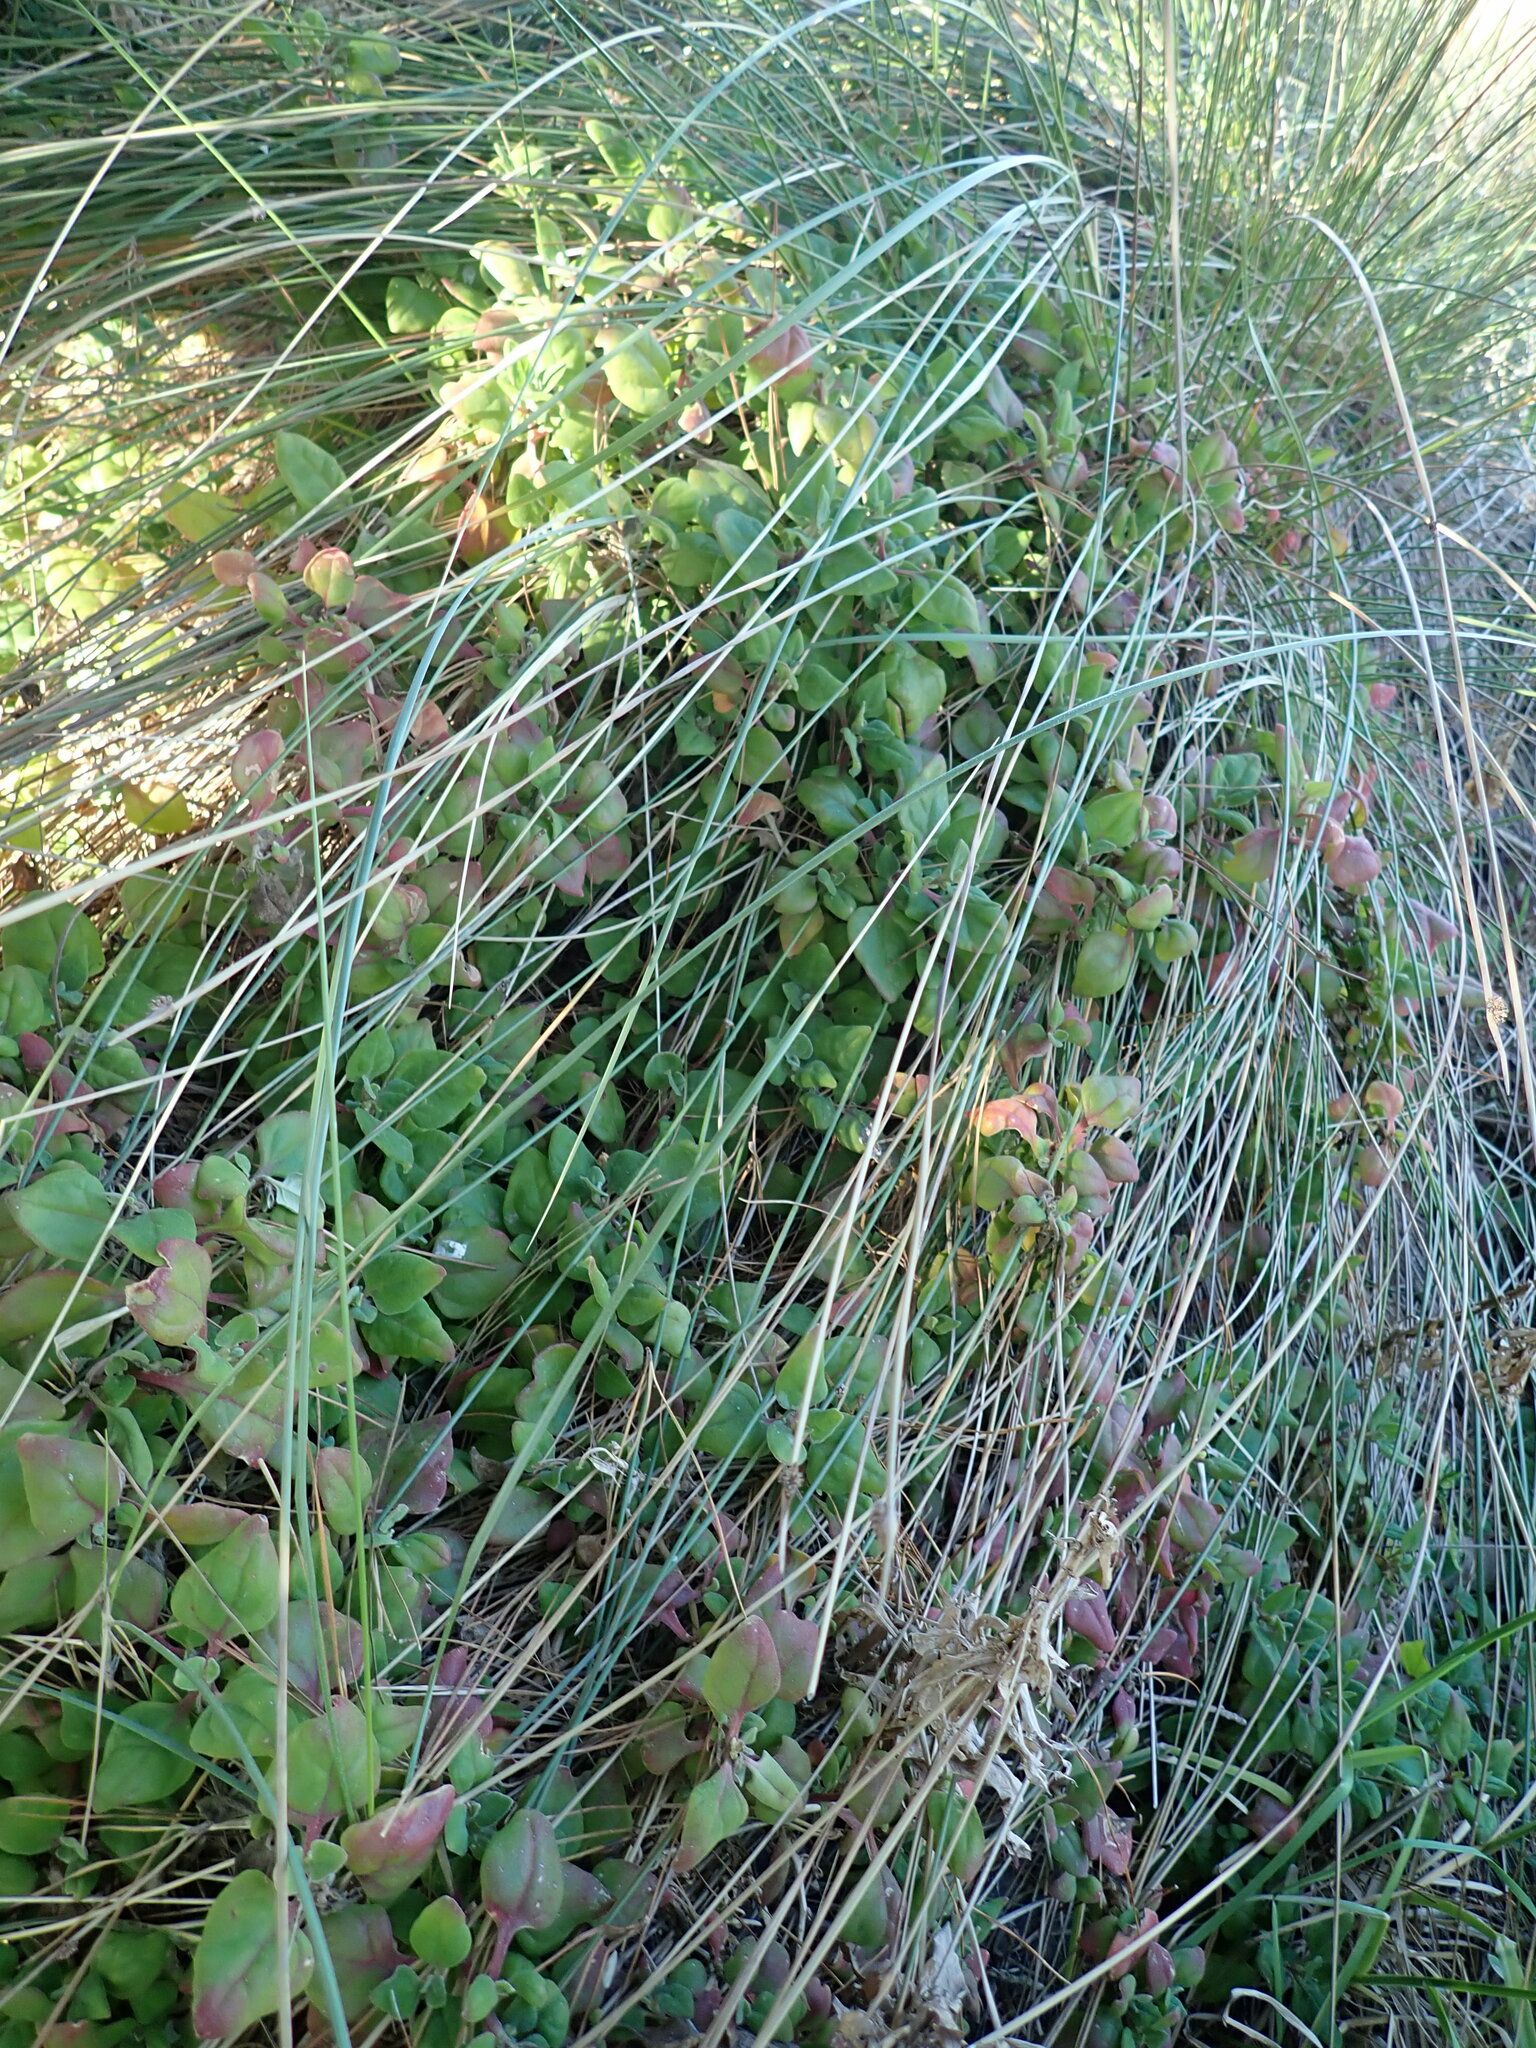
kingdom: Plantae
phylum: Tracheophyta
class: Magnoliopsida
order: Caryophyllales
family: Aizoaceae
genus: Tetragonia
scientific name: Tetragonia implexicoma
